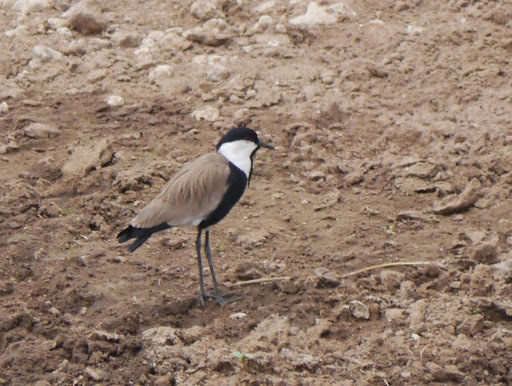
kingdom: Animalia
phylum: Chordata
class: Aves
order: Charadriiformes
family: Charadriidae
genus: Vanellus
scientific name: Vanellus spinosus
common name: Spur-winged lapwing
